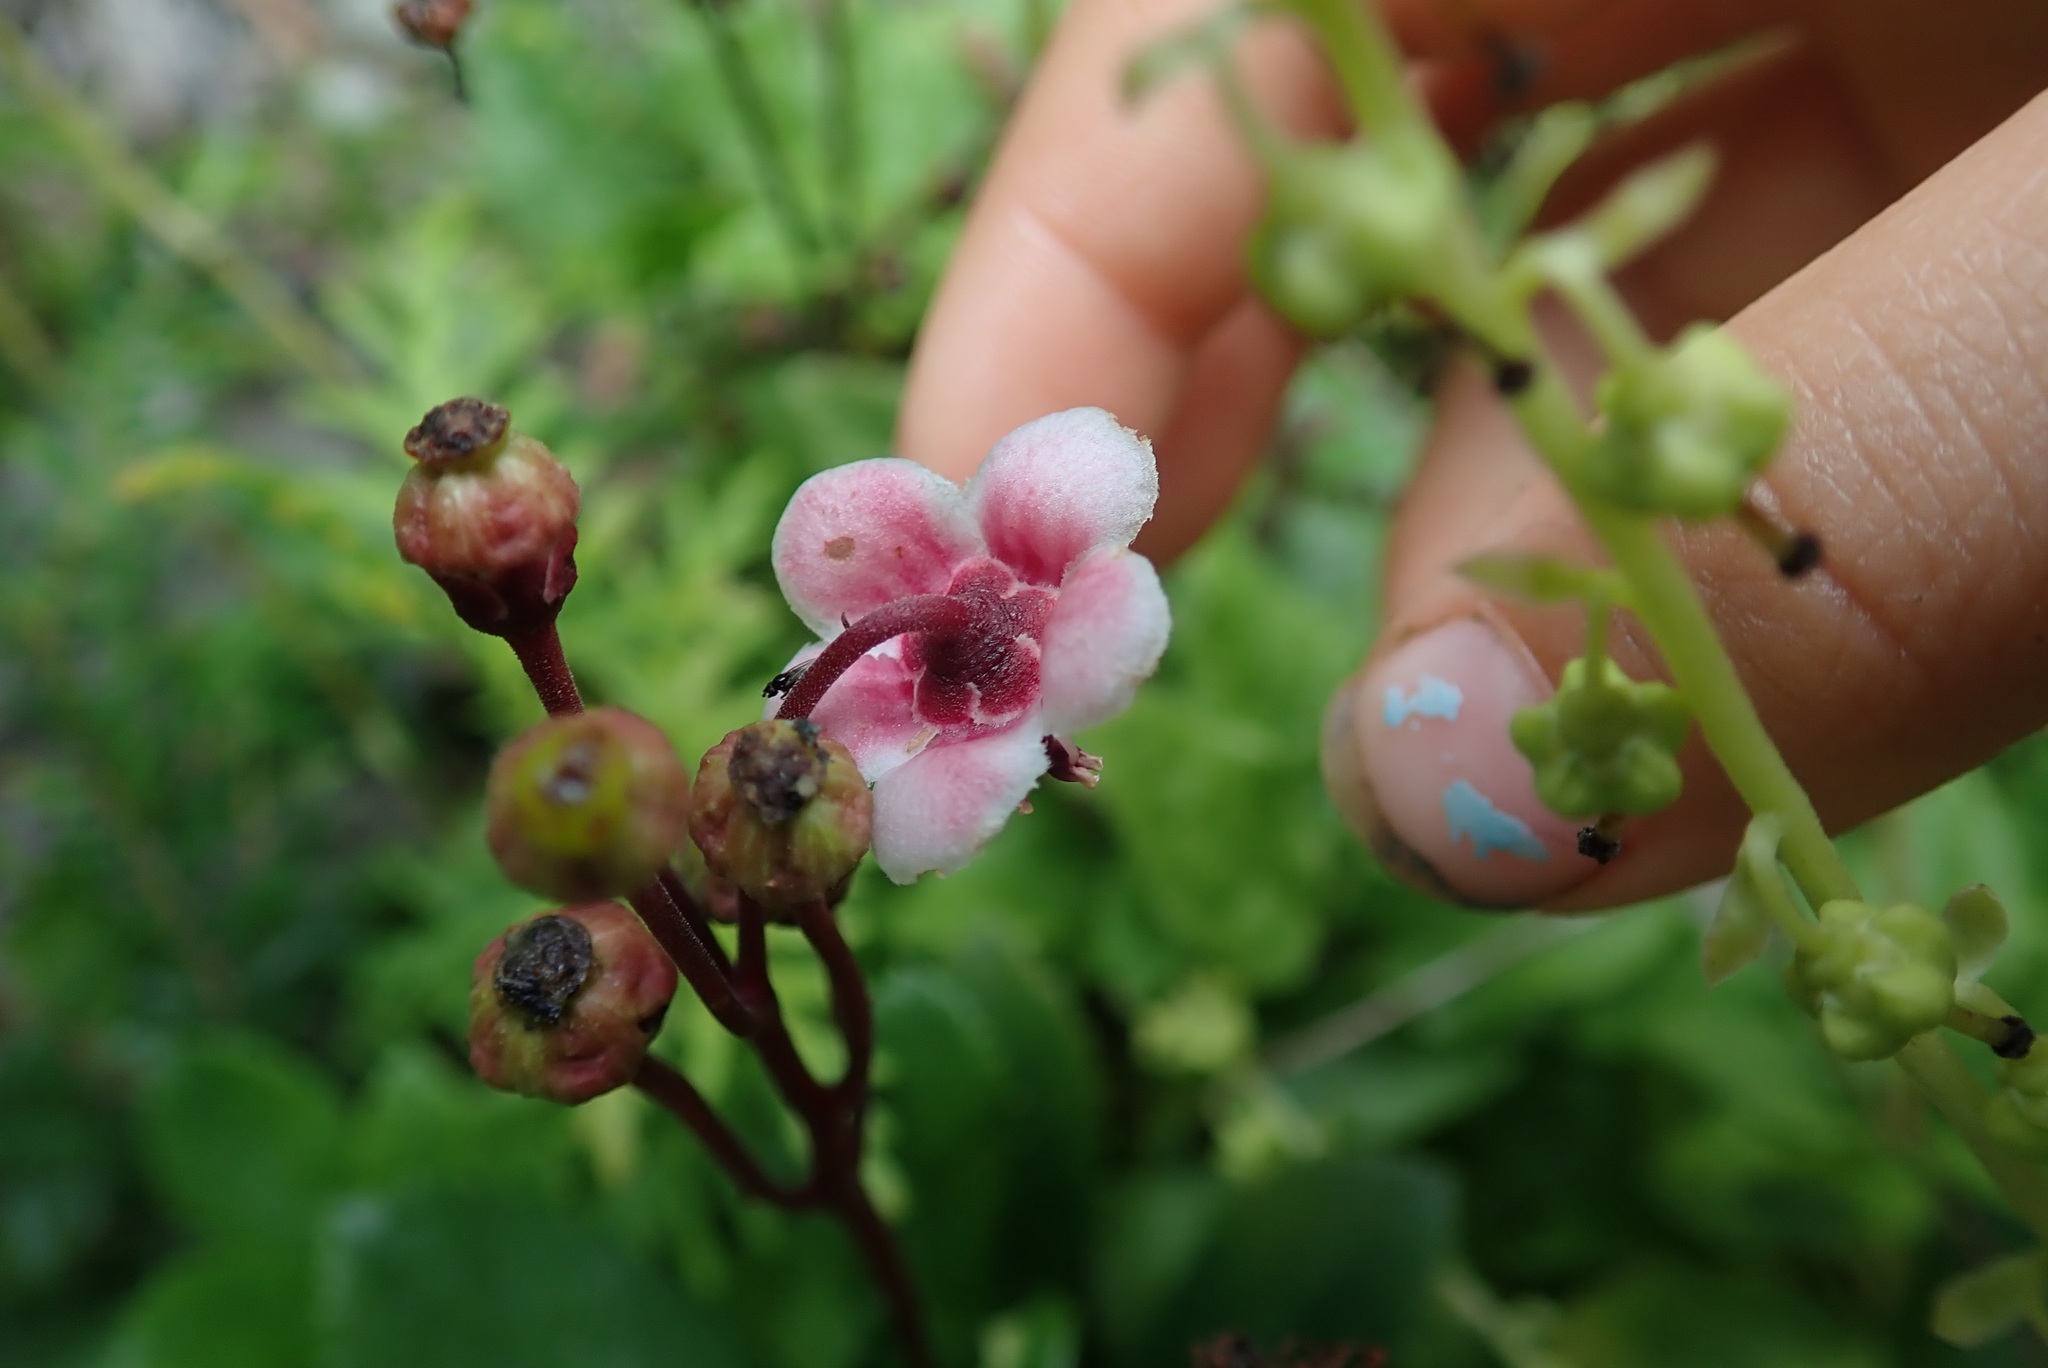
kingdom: Plantae
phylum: Tracheophyta
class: Magnoliopsida
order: Ericales
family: Ericaceae
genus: Chimaphila
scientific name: Chimaphila umbellata
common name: Pipsissewa
